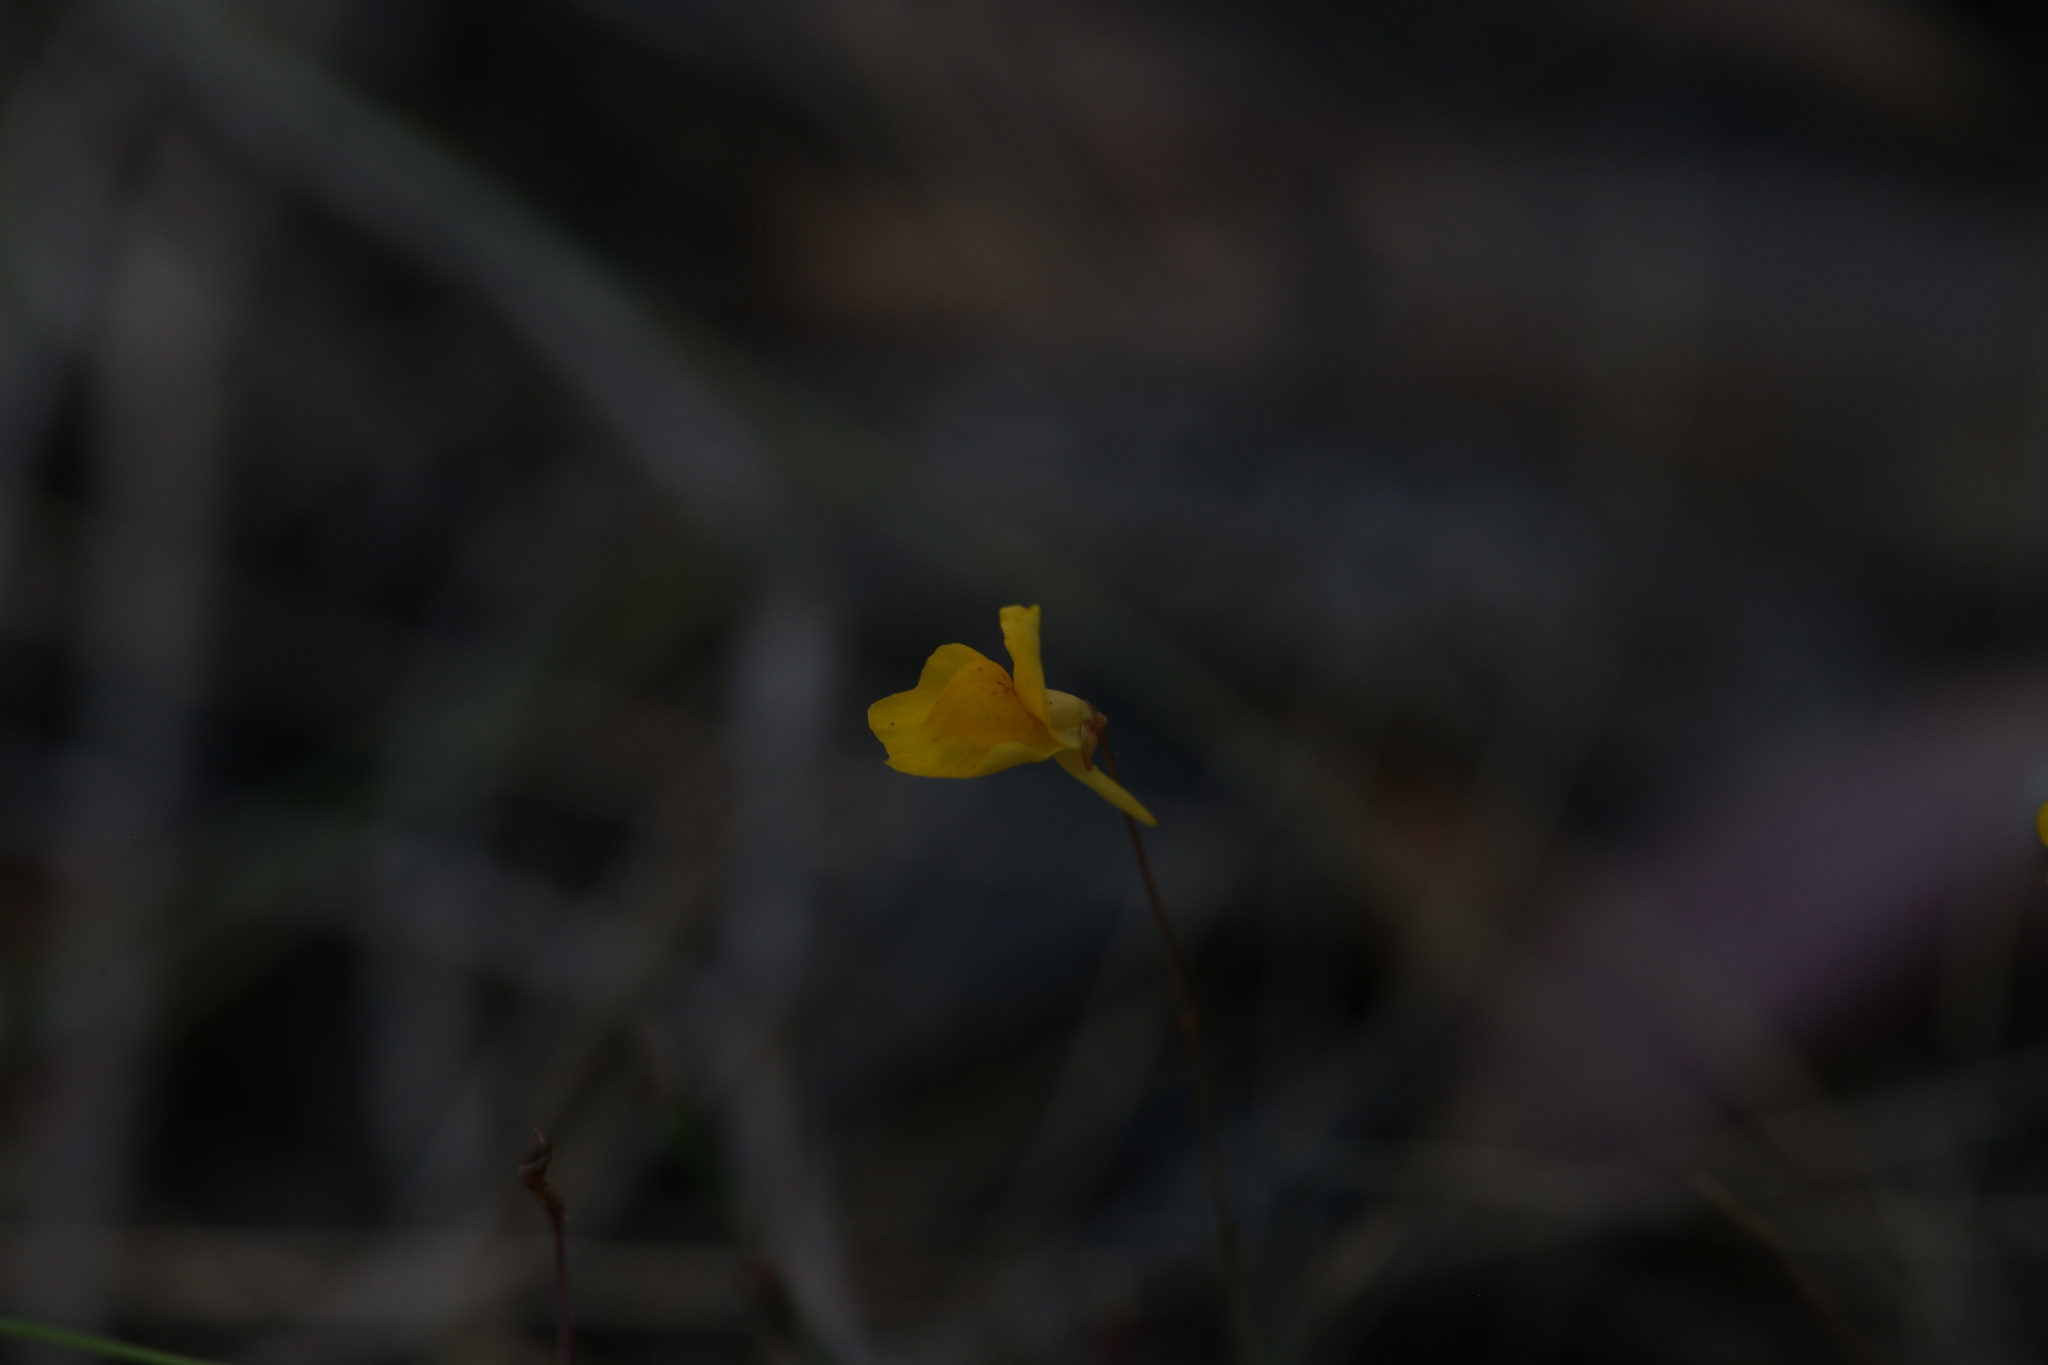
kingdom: Plantae
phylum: Tracheophyta
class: Magnoliopsida
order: Lamiales
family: Lentibulariaceae
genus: Utricularia
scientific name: Utricularia chrysantha
